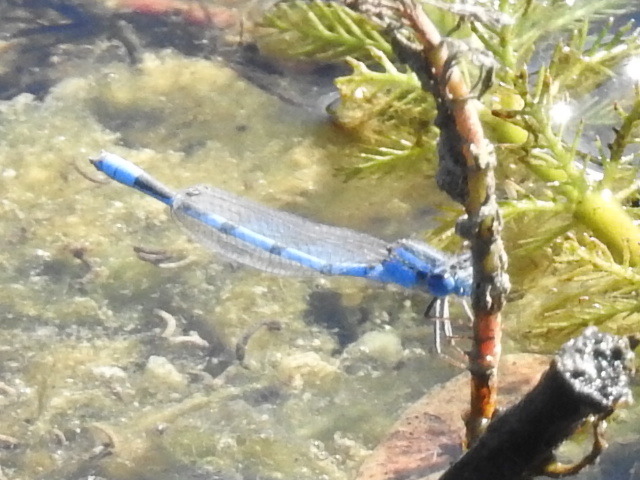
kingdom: Animalia
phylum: Arthropoda
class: Insecta
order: Odonata
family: Coenagrionidae
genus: Enallagma
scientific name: Enallagma civile
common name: Damselfly
